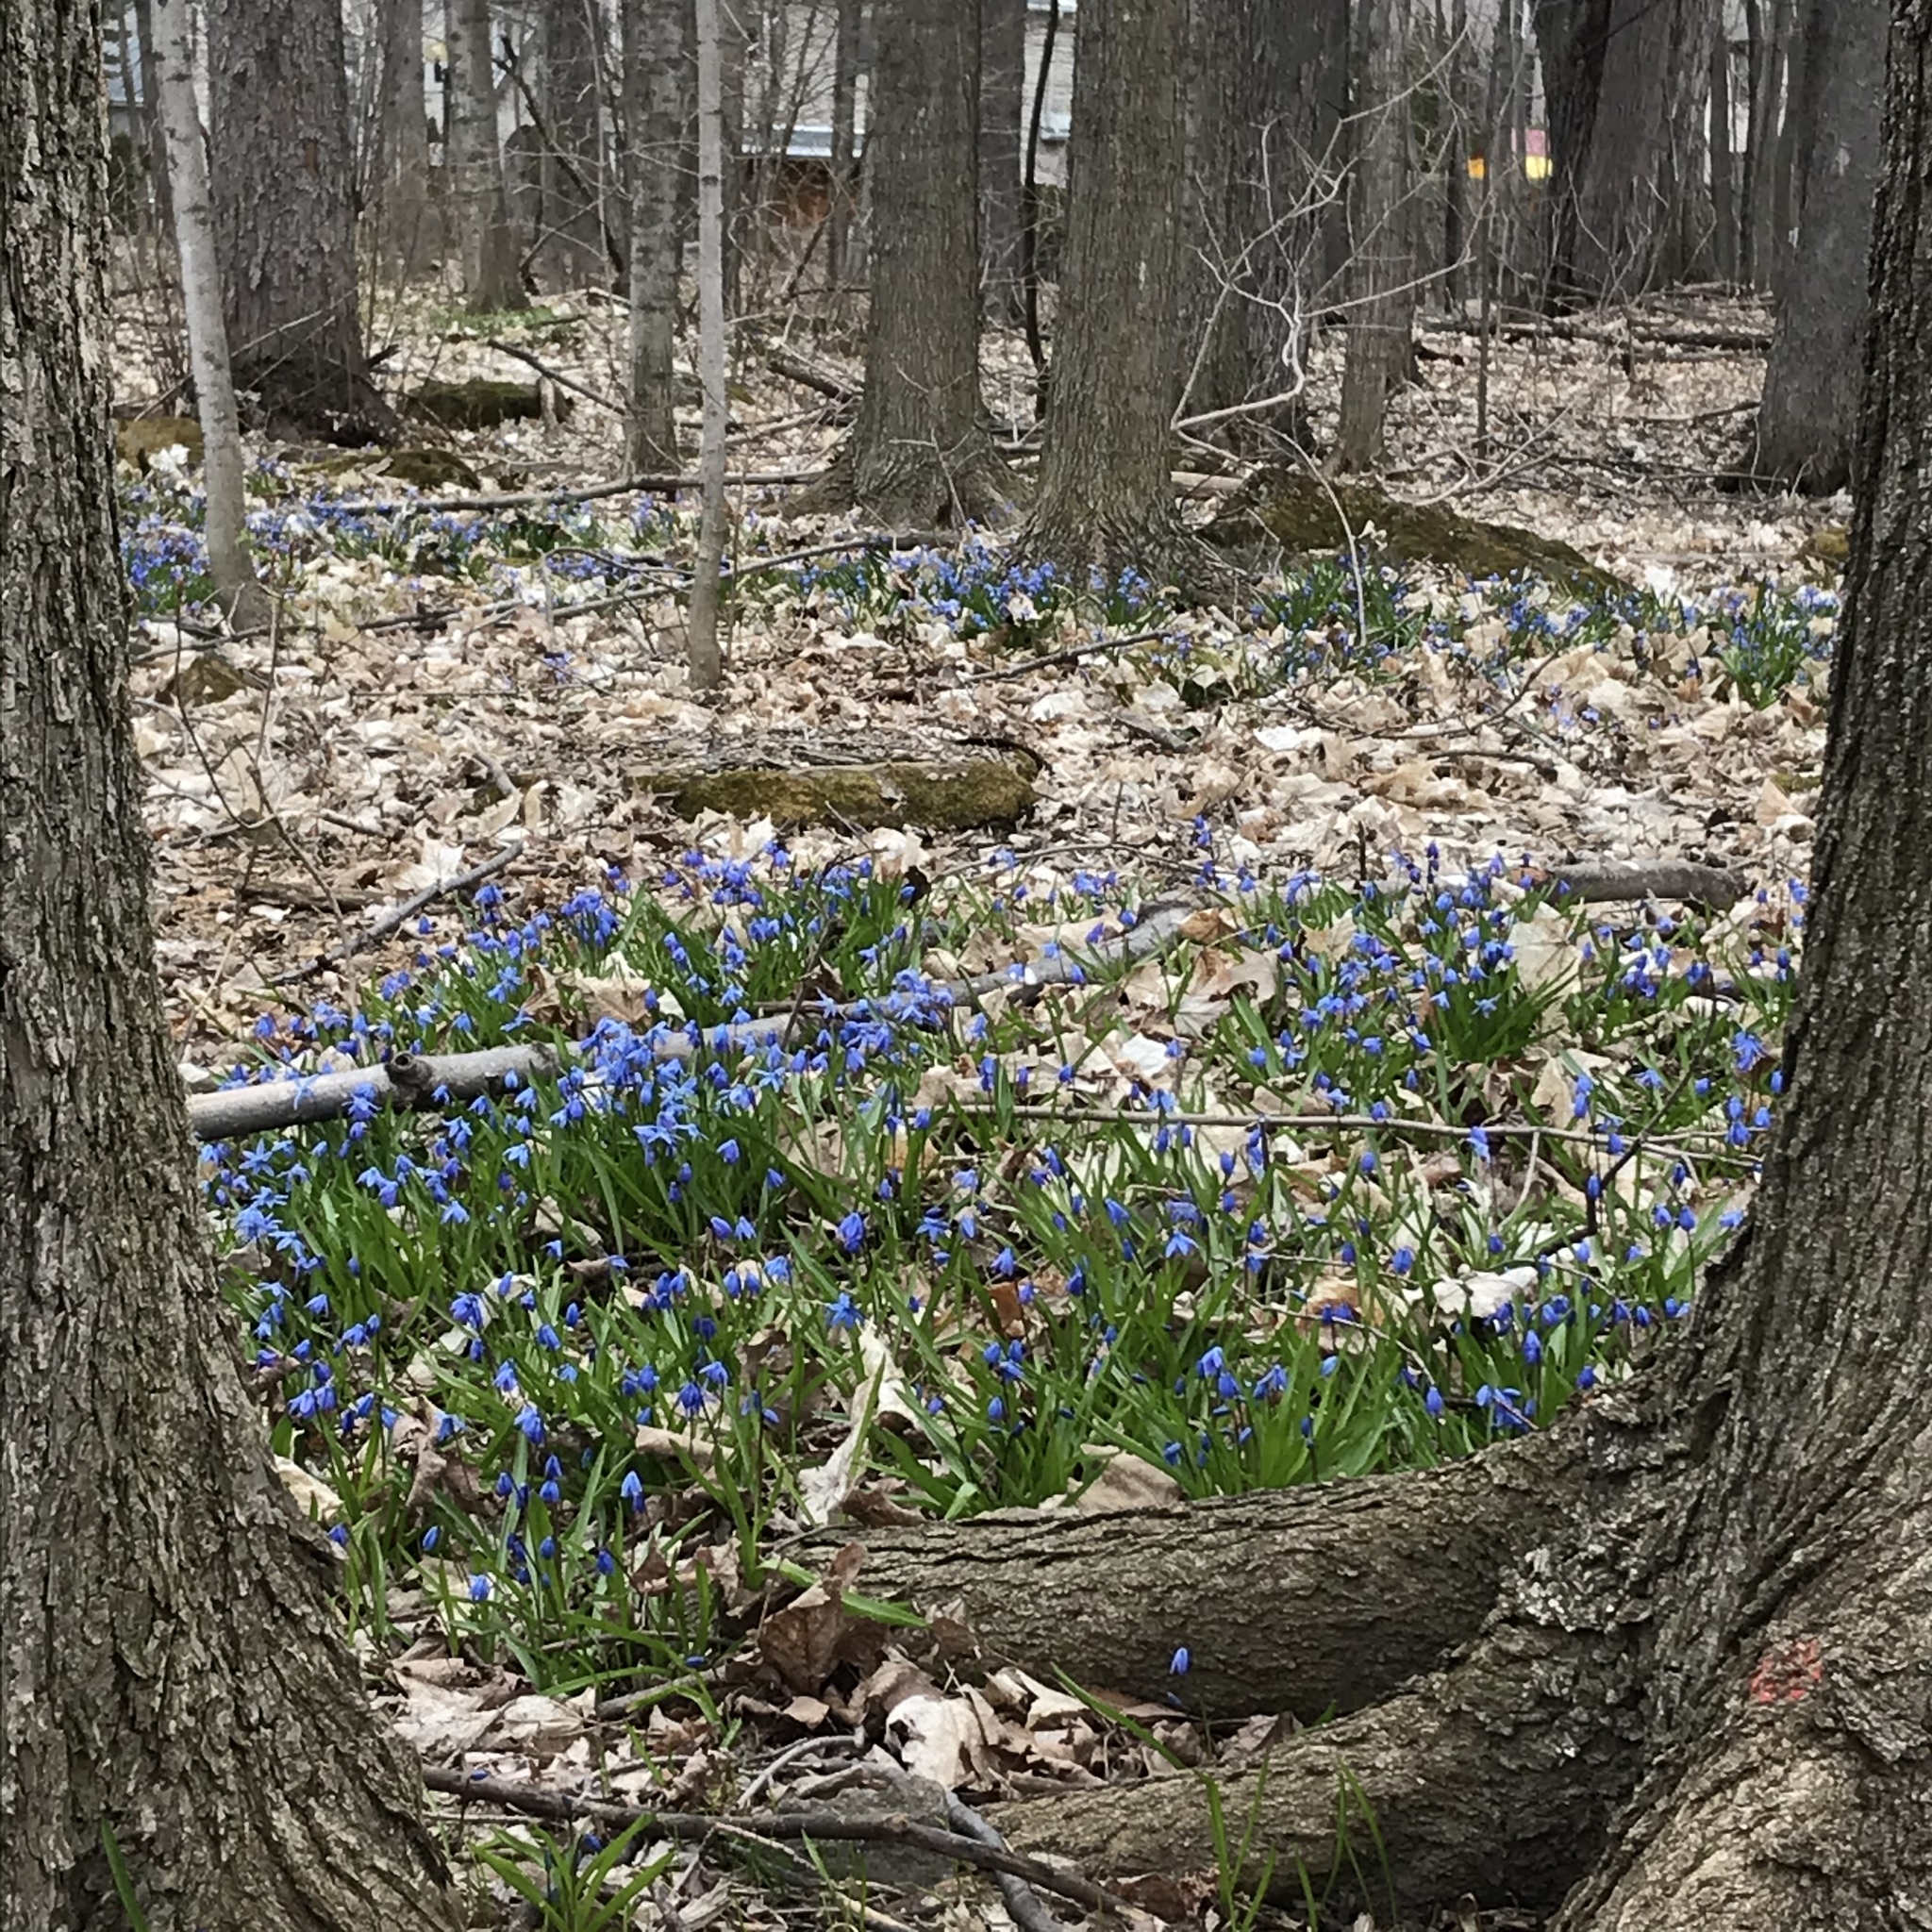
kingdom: Plantae
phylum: Tracheophyta
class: Liliopsida
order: Asparagales
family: Asparagaceae
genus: Scilla
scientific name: Scilla siberica
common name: Siberian squill
